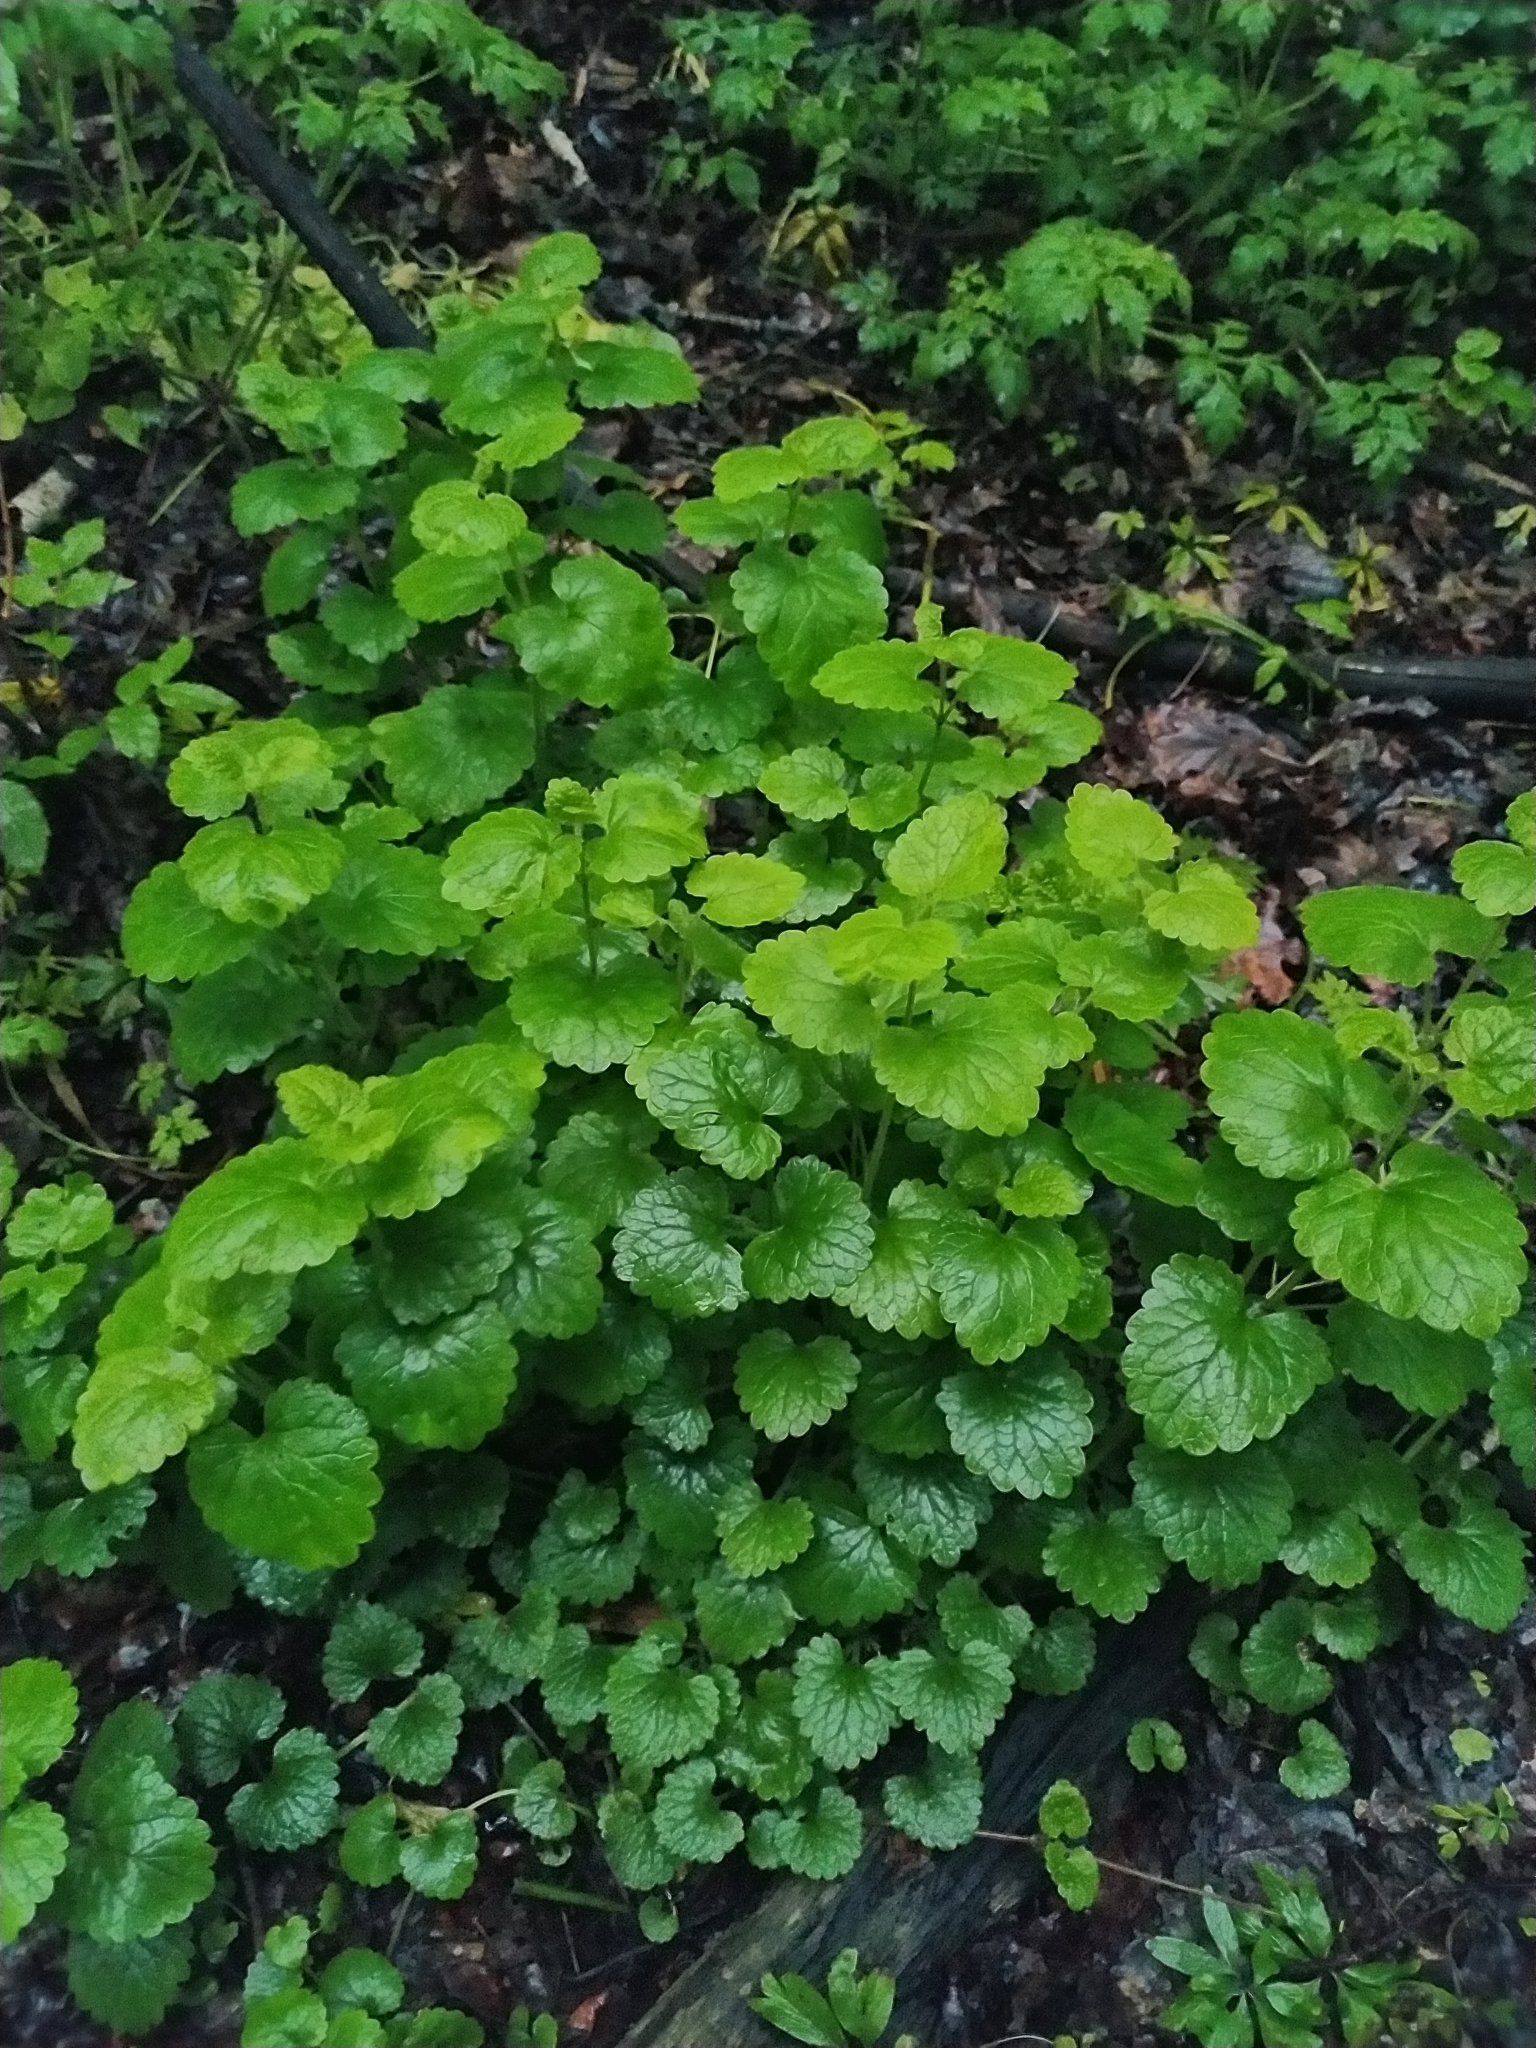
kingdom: Plantae
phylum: Tracheophyta
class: Magnoliopsida
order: Lamiales
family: Lamiaceae
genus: Glechoma
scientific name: Glechoma hederacea
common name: Ground ivy
